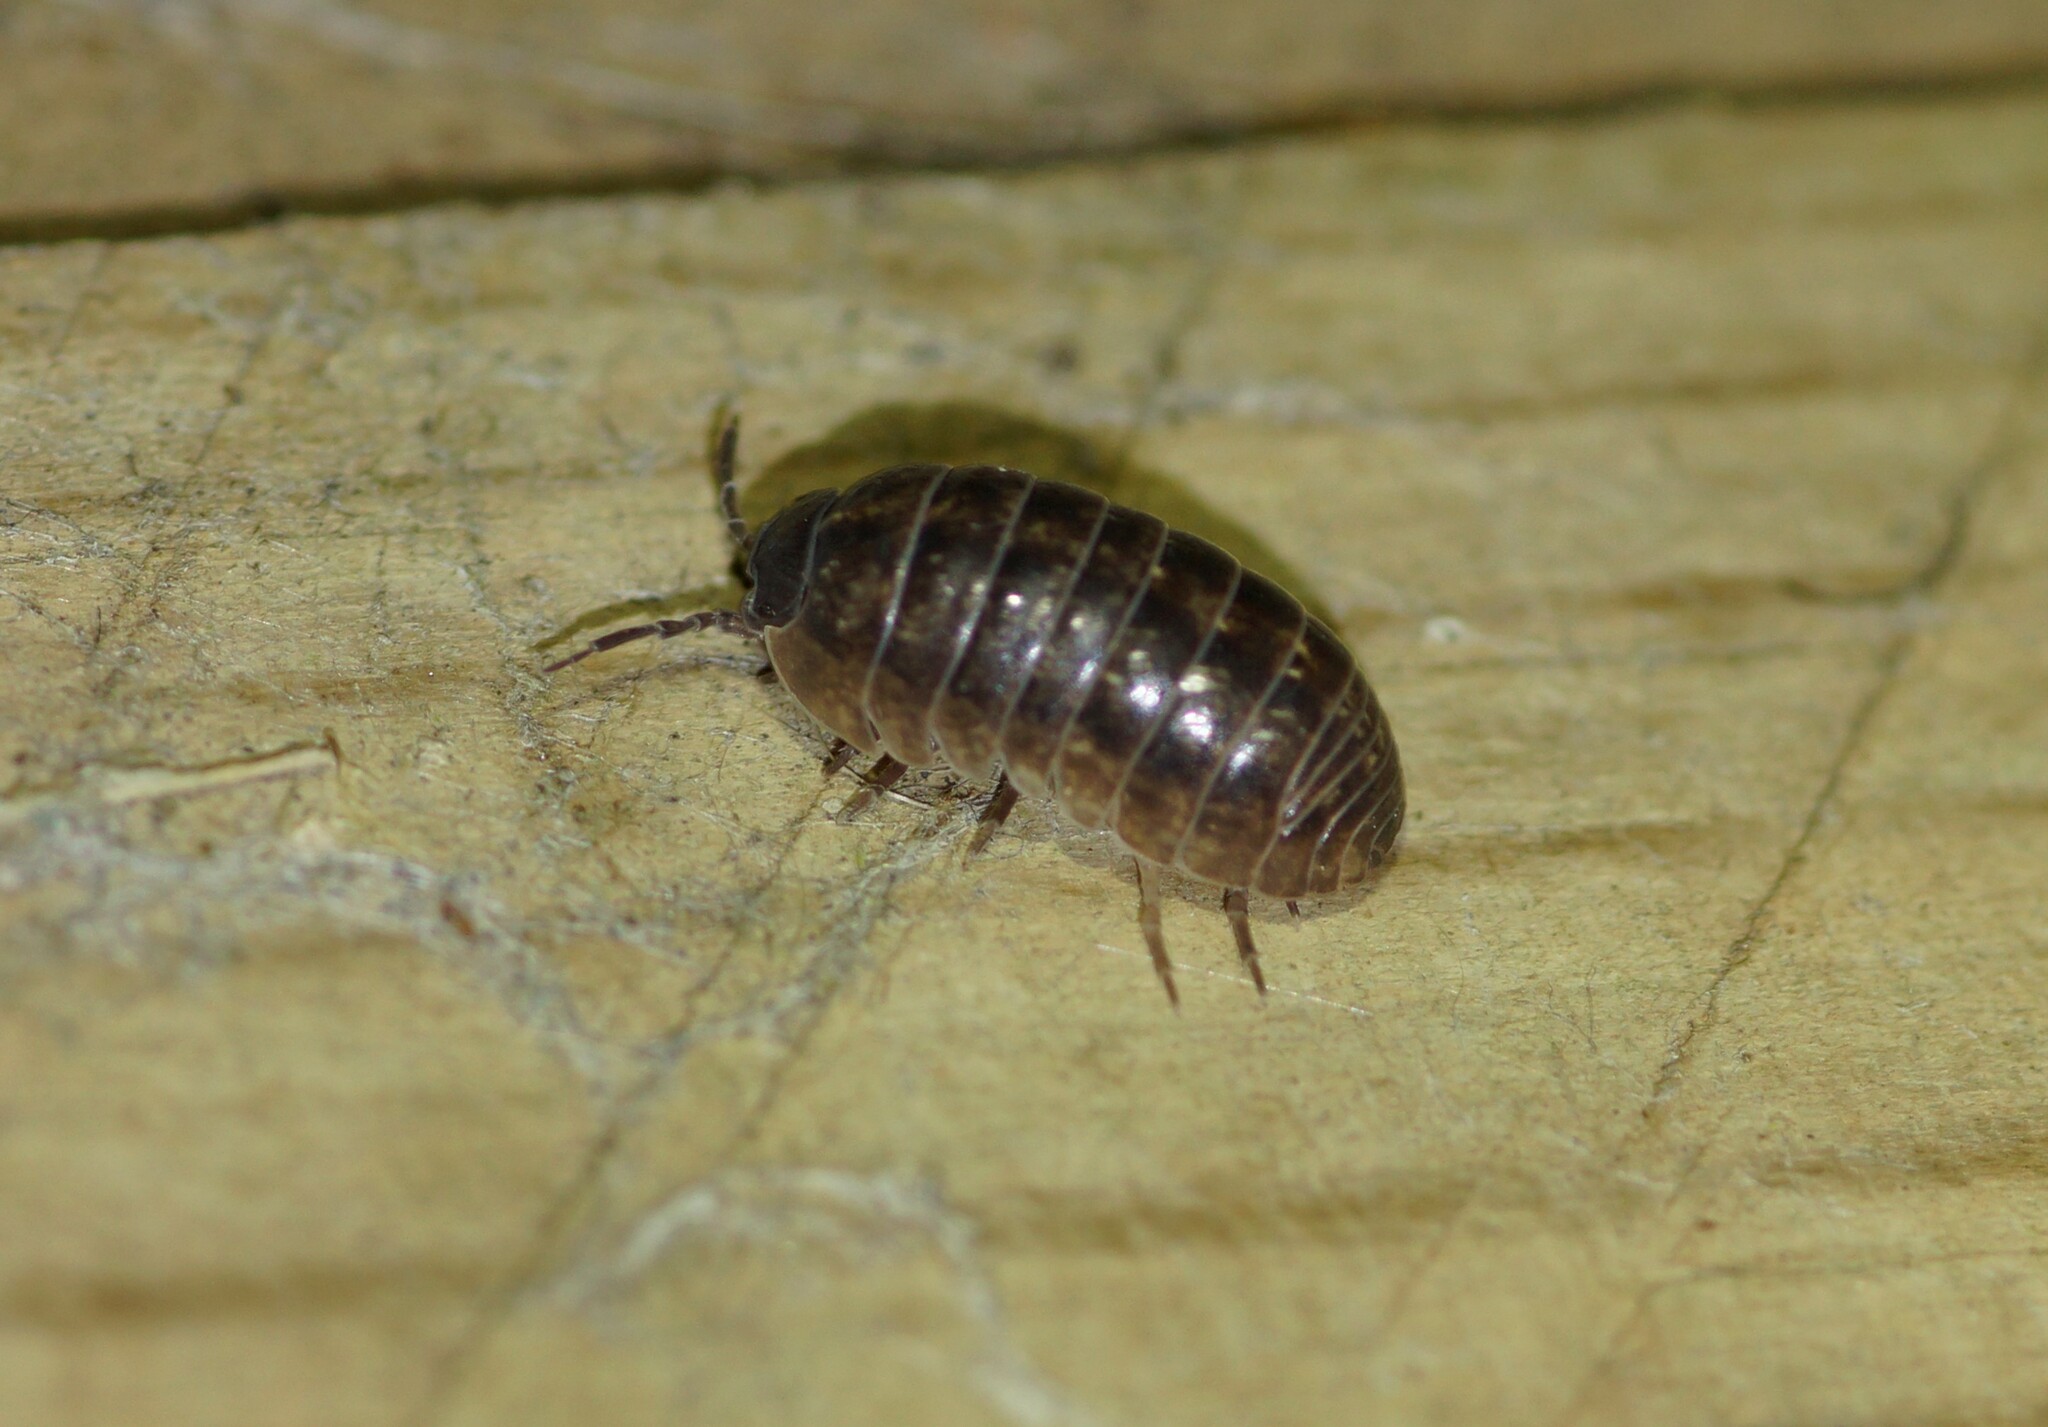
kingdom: Animalia
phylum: Arthropoda
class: Malacostraca
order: Isopoda
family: Armadillidiidae
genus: Armadillidium
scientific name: Armadillidium vulgare
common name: Common pill woodlouse
